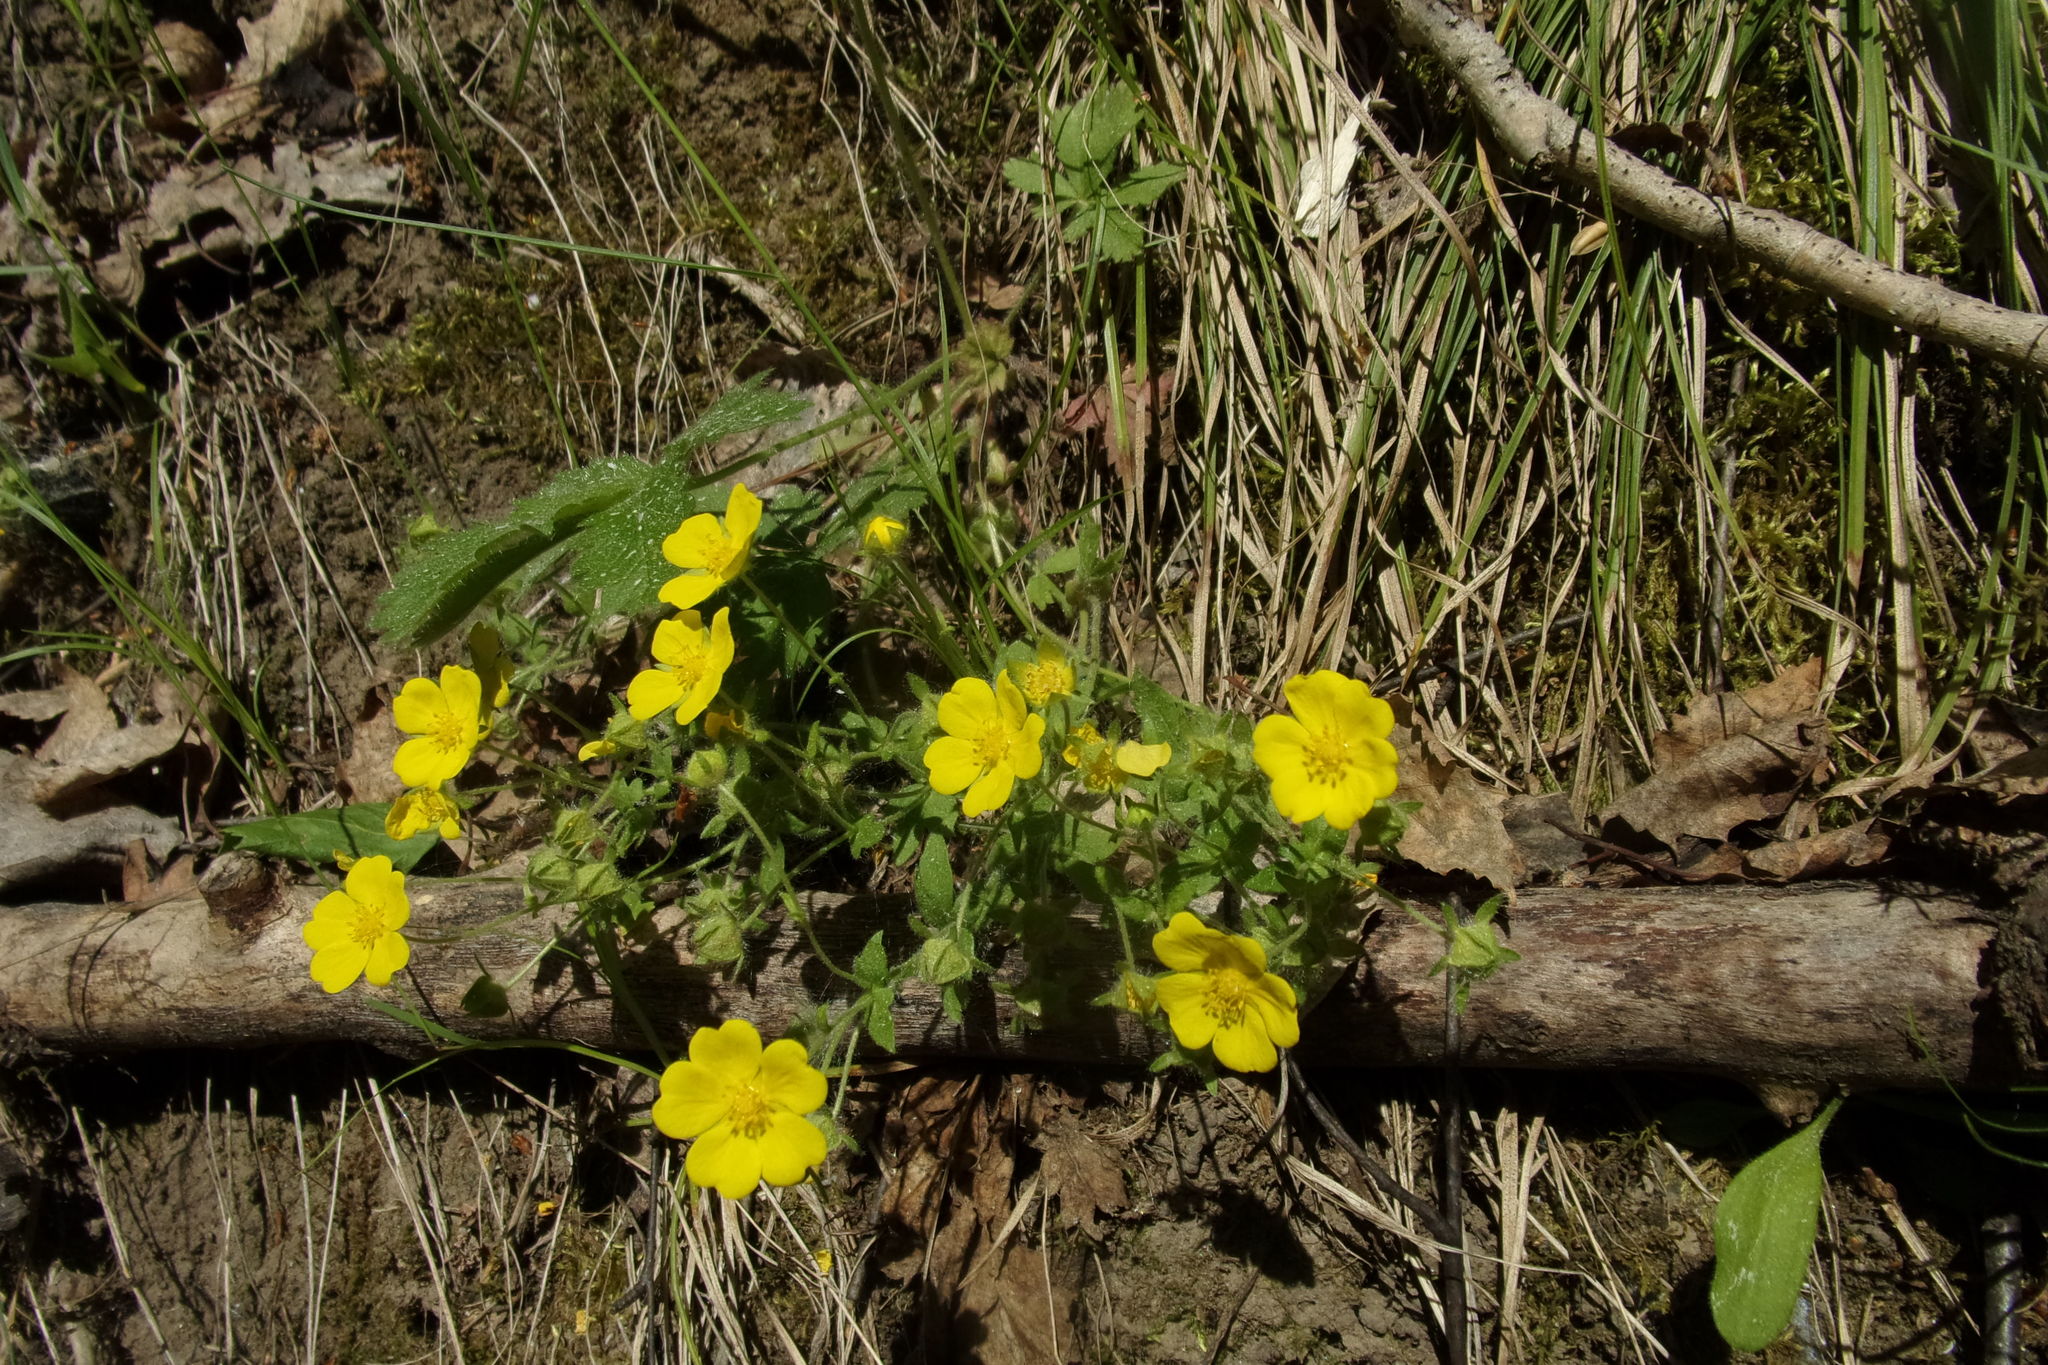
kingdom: Plantae
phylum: Tracheophyta
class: Magnoliopsida
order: Rosales
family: Rosaceae
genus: Potentilla
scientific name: Potentilla fragarioides
